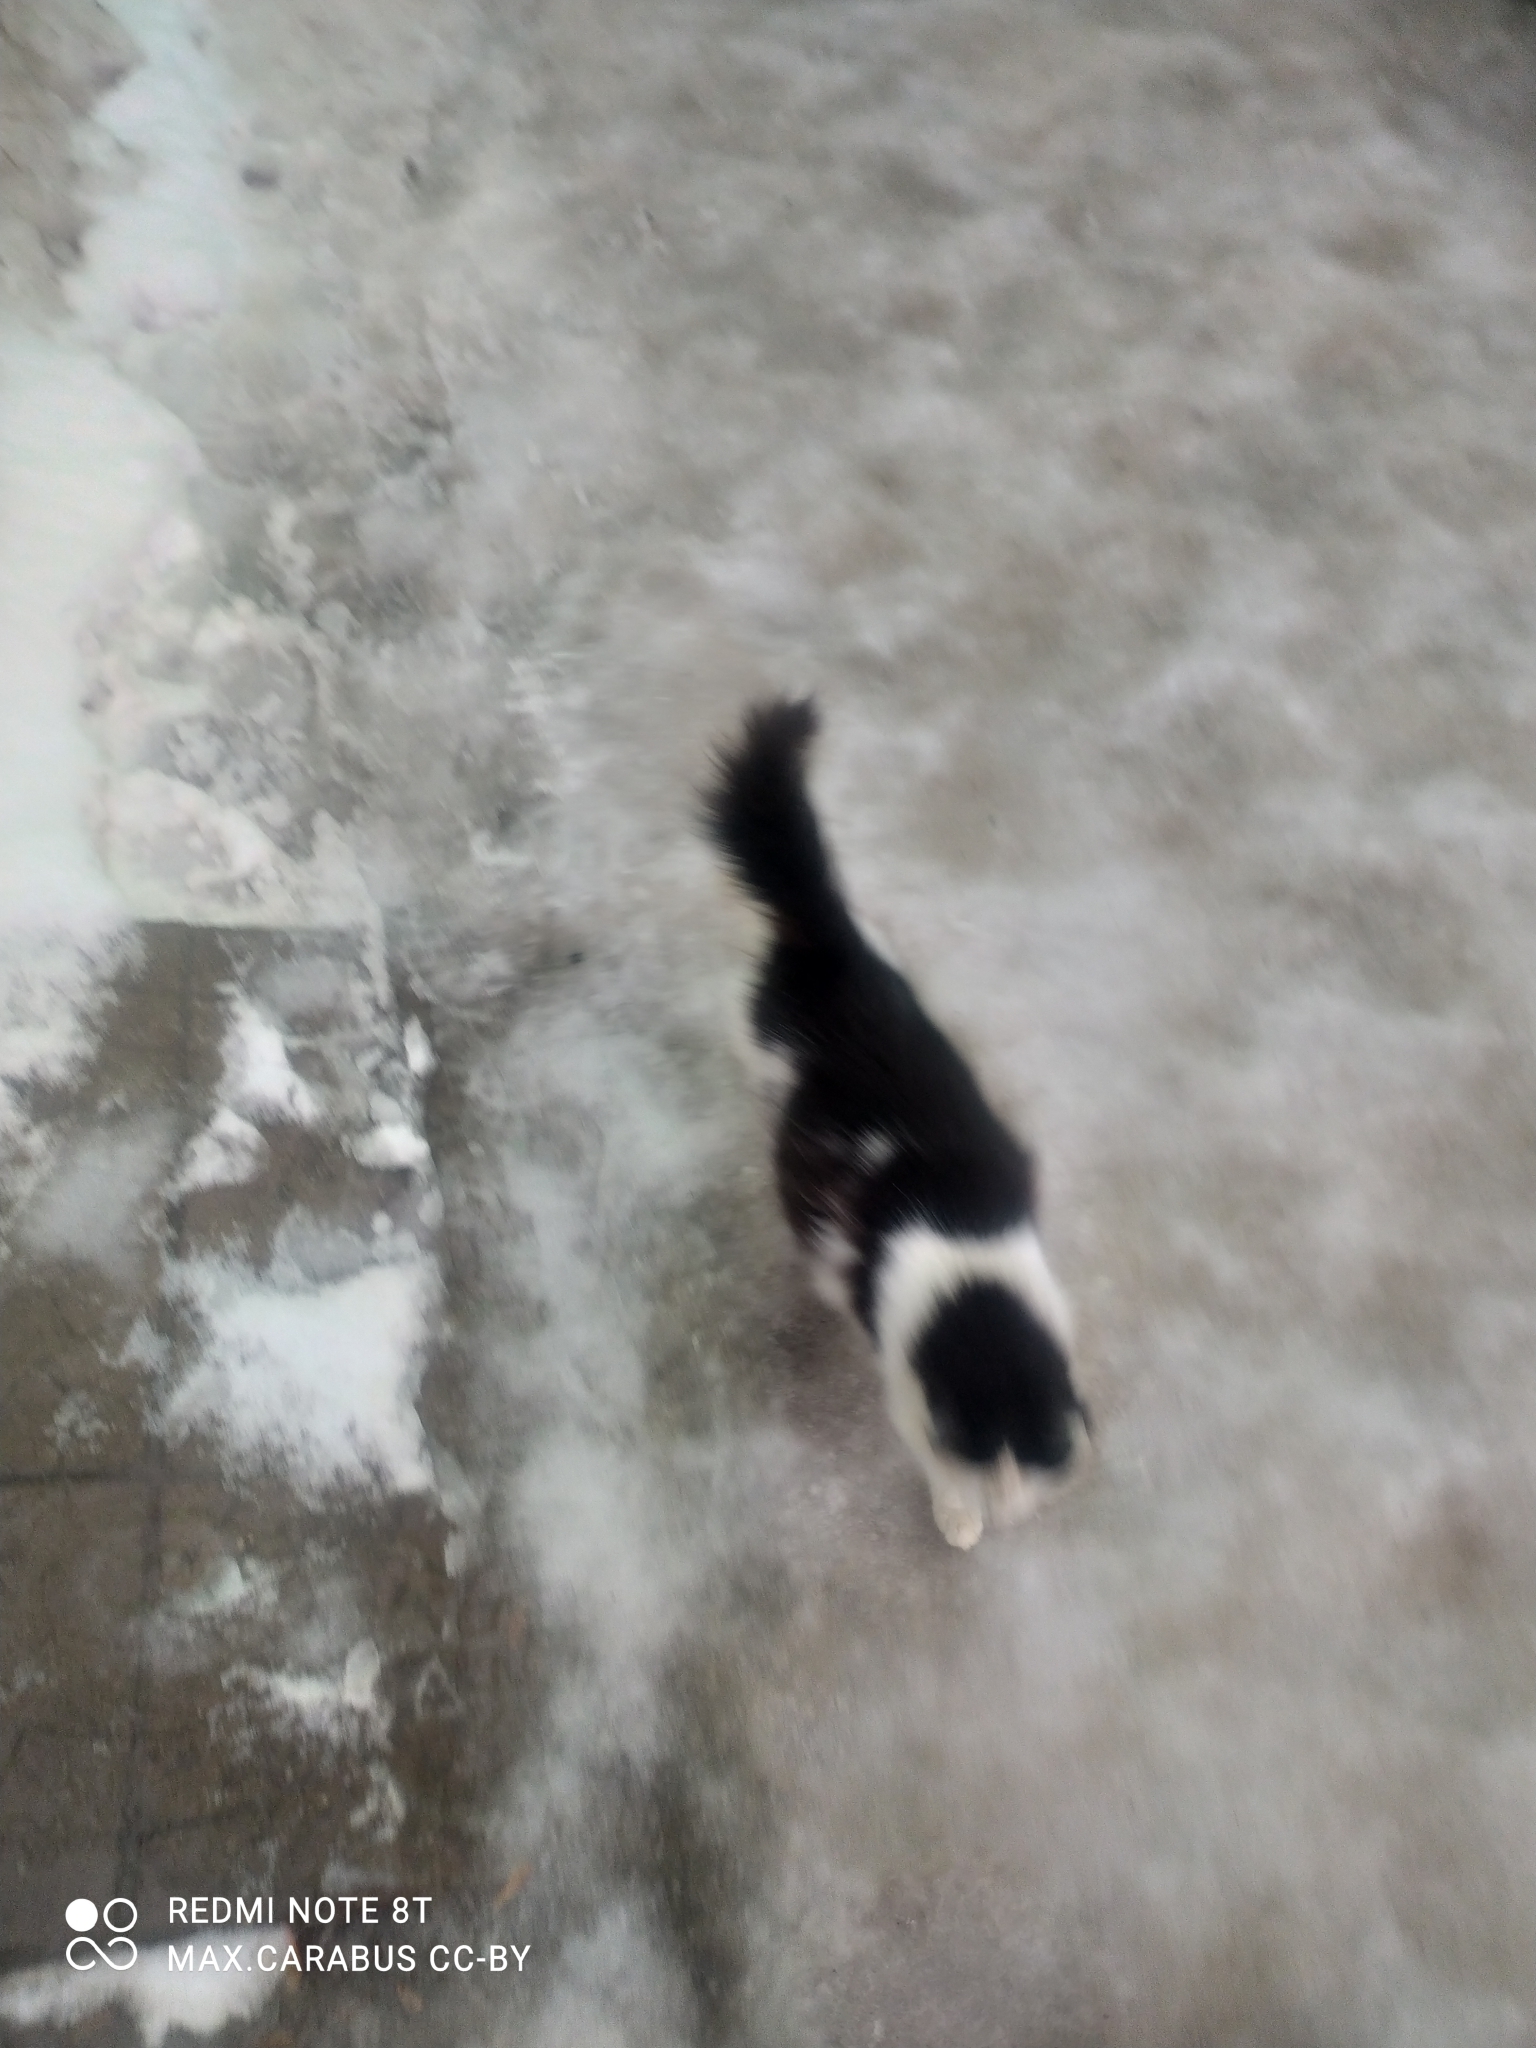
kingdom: Animalia
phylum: Chordata
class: Mammalia
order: Carnivora
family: Felidae
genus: Felis
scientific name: Felis catus
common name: Domestic cat
